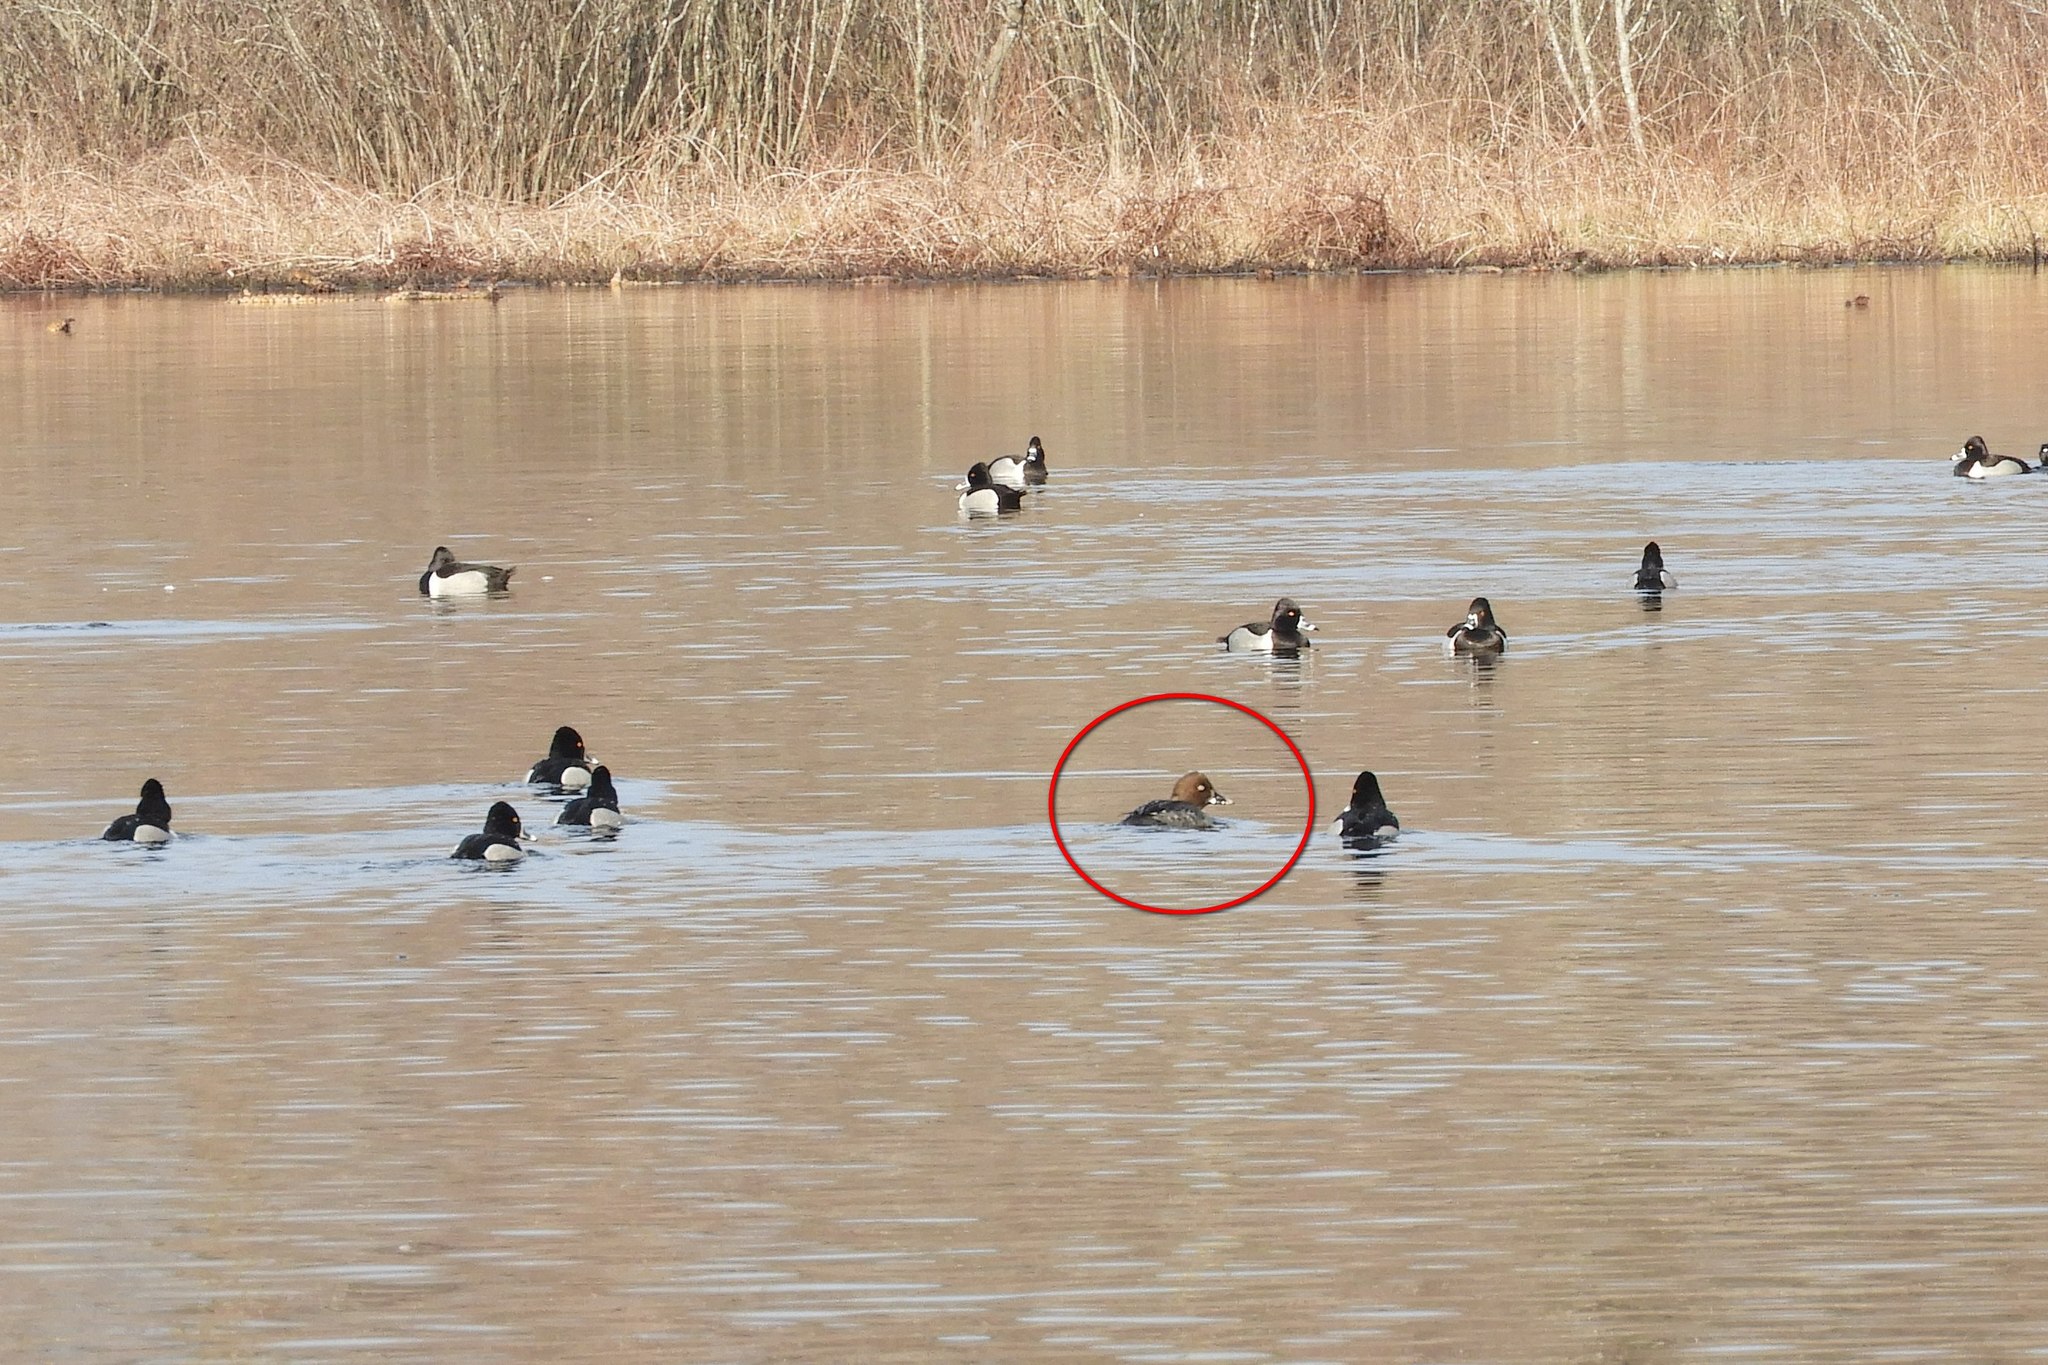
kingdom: Animalia
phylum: Chordata
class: Aves
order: Anseriformes
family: Anatidae
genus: Bucephala
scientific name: Bucephala clangula
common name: Common goldeneye
